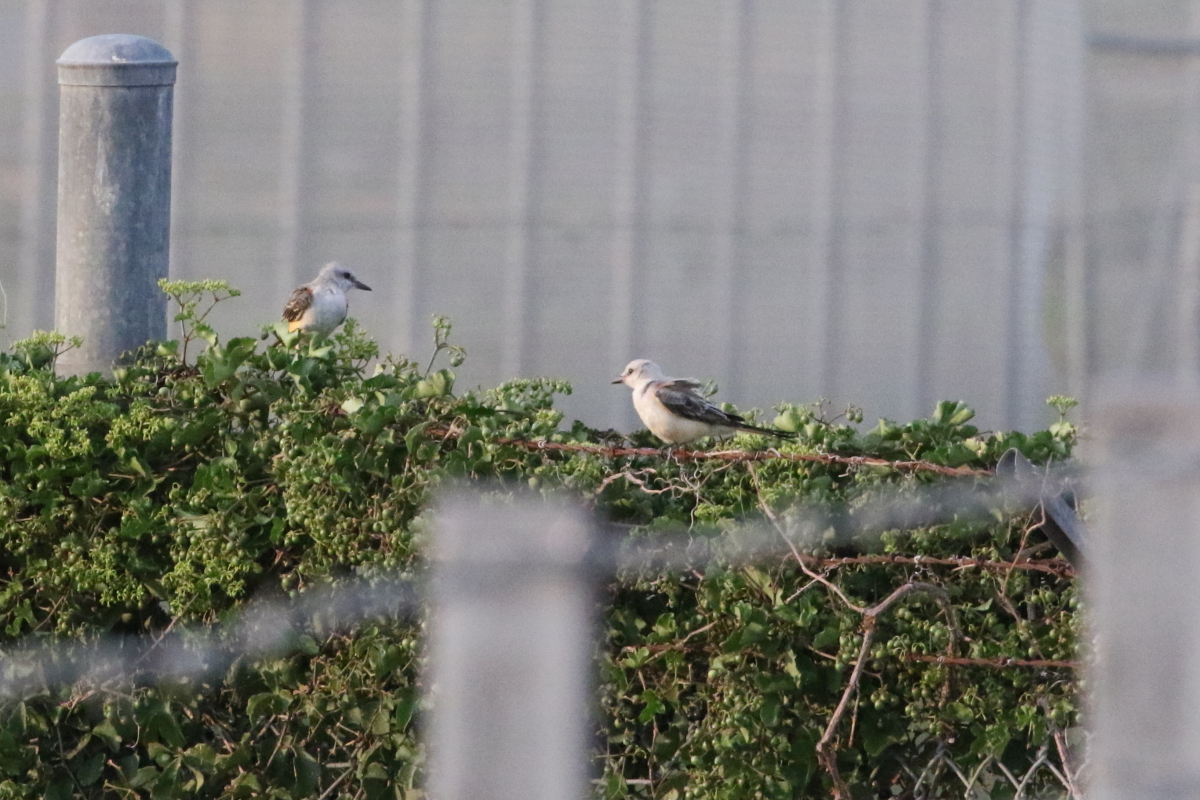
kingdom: Animalia
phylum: Chordata
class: Aves
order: Passeriformes
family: Tyrannidae
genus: Tyrannus
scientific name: Tyrannus forficatus
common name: Scissor-tailed flycatcher
